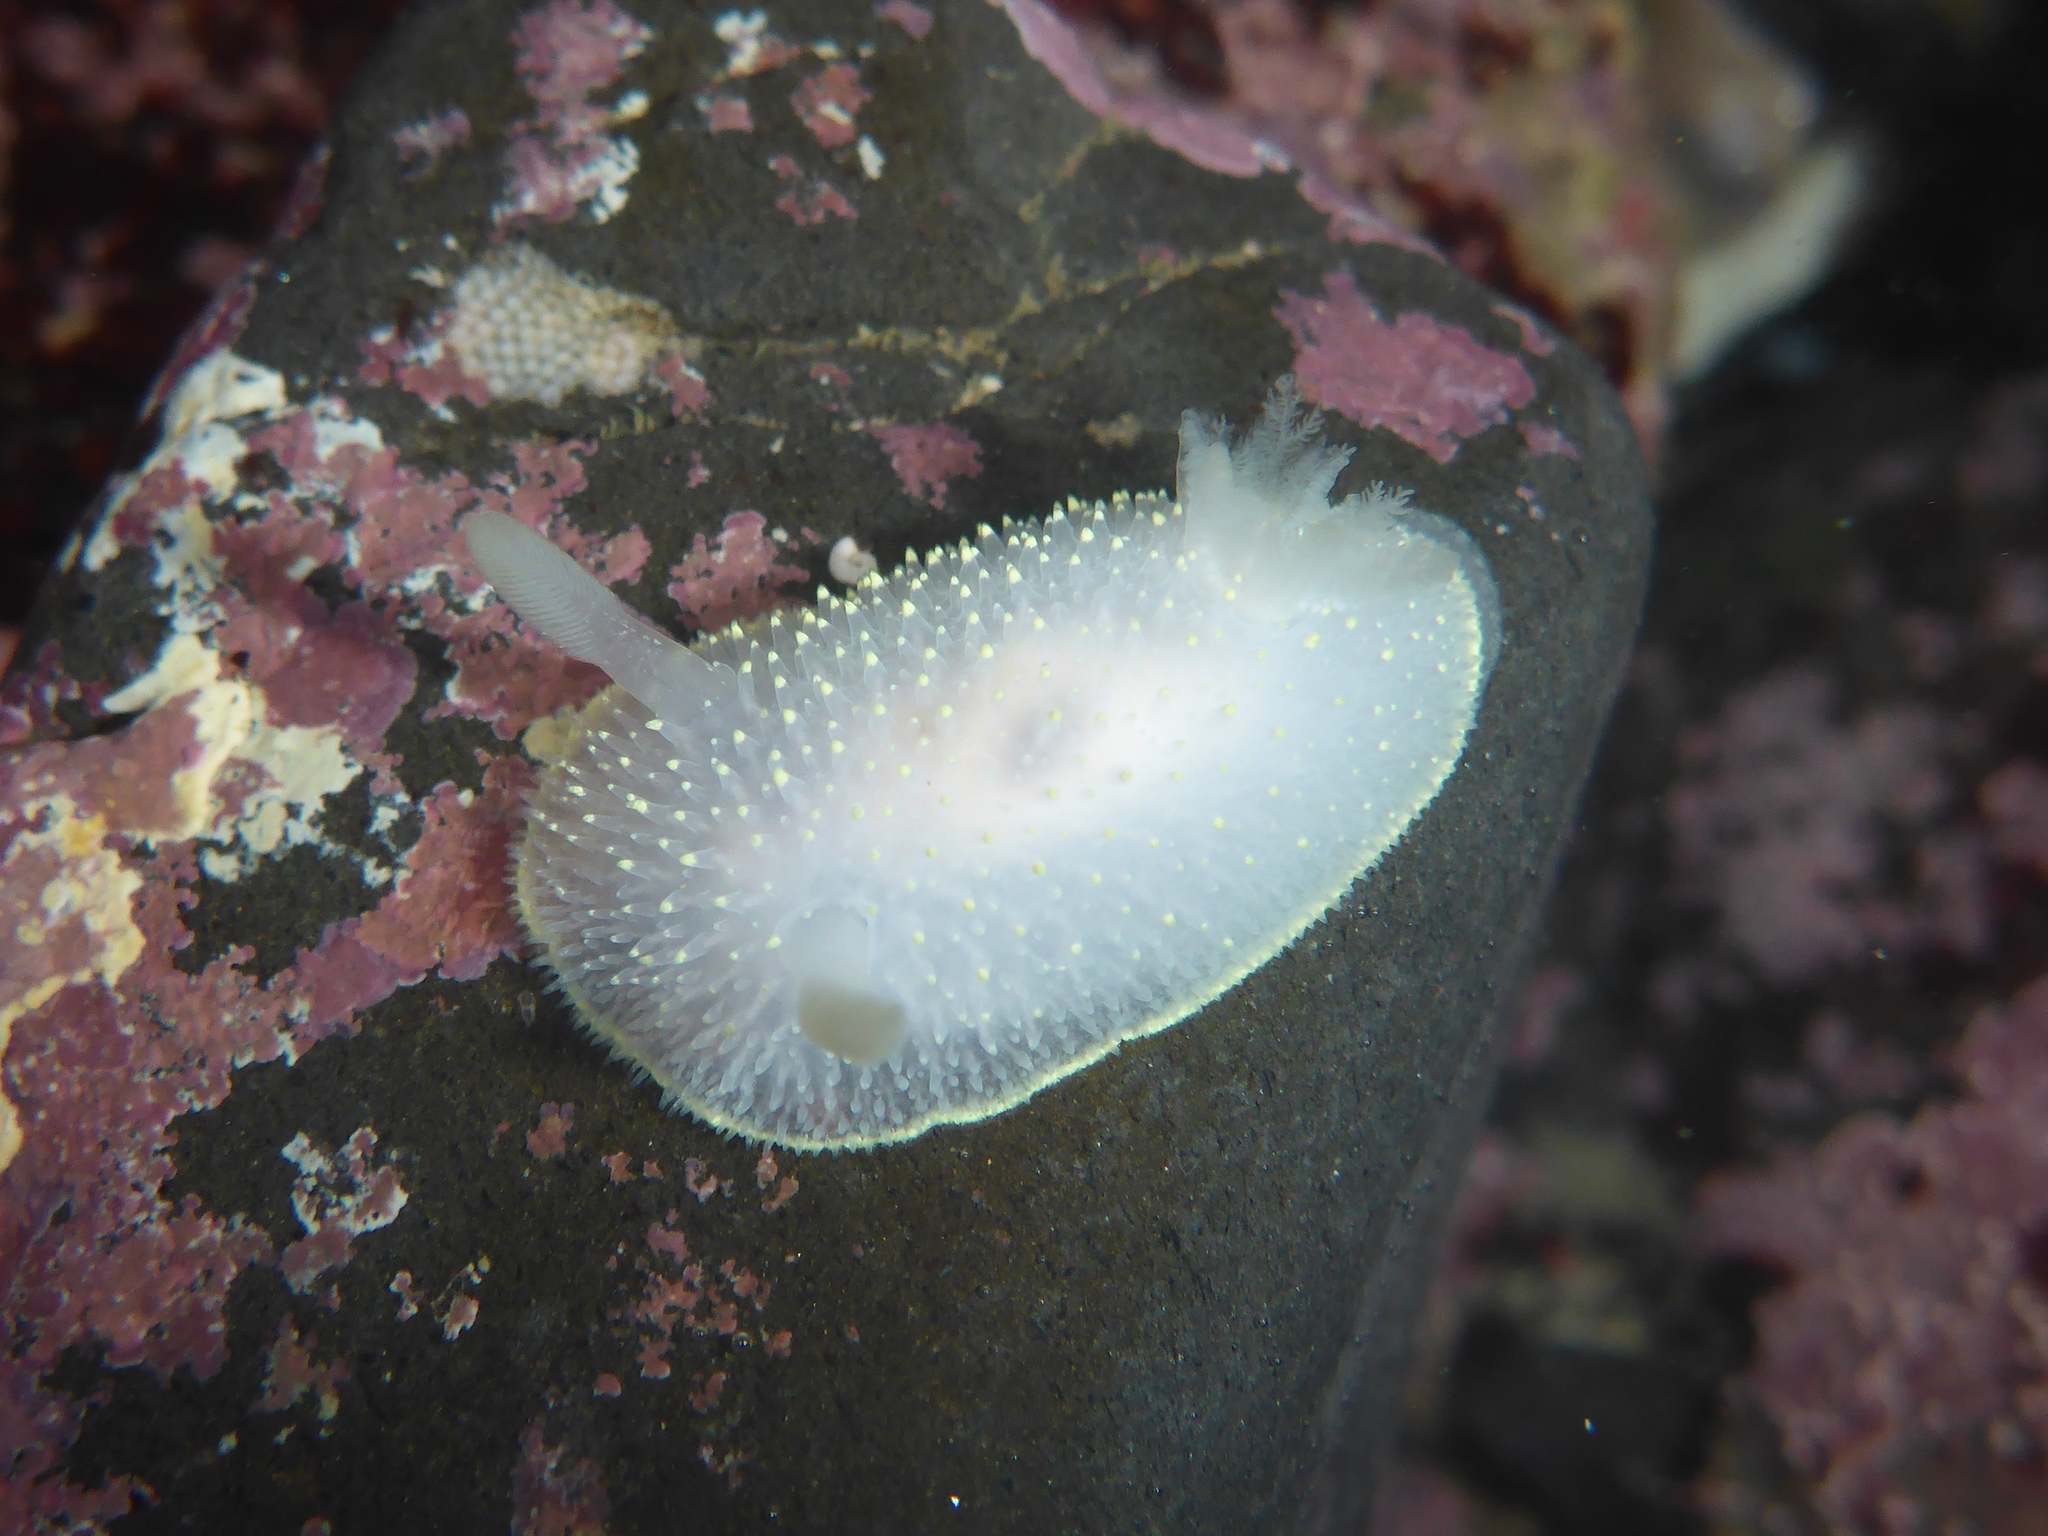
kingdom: Animalia
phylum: Mollusca
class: Gastropoda
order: Nudibranchia
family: Onchidorididae
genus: Acanthodoris
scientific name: Acanthodoris hudsoni
